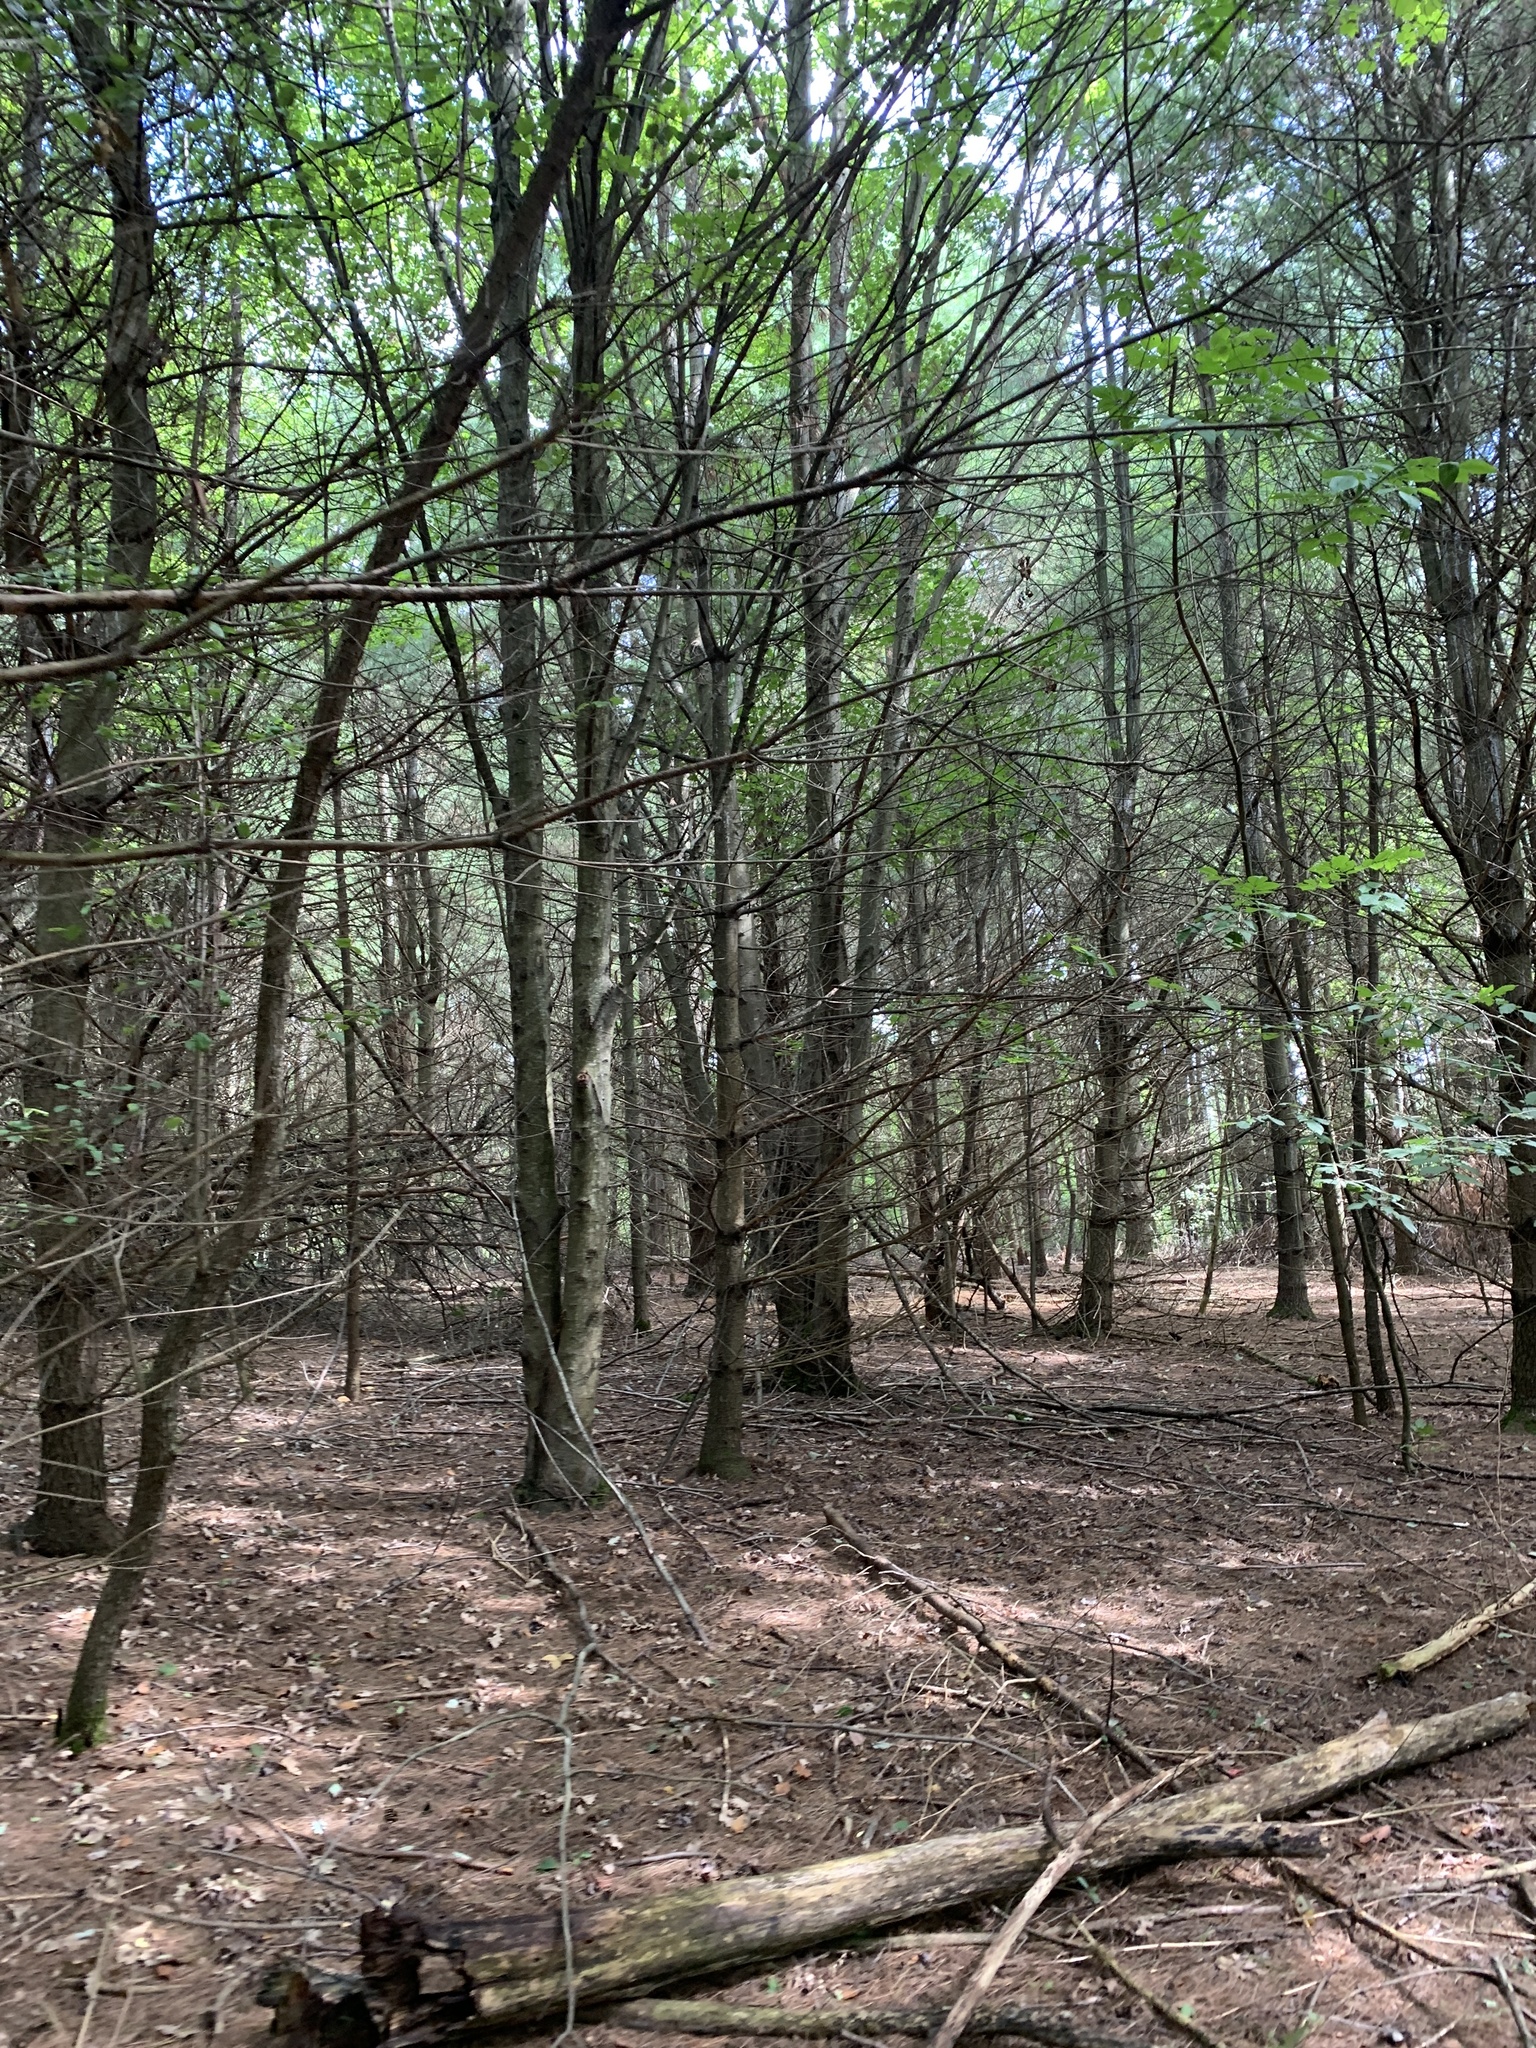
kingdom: Plantae
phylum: Tracheophyta
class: Pinopsida
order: Pinales
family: Pinaceae
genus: Pinus
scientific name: Pinus strobus
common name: Weymouth pine
